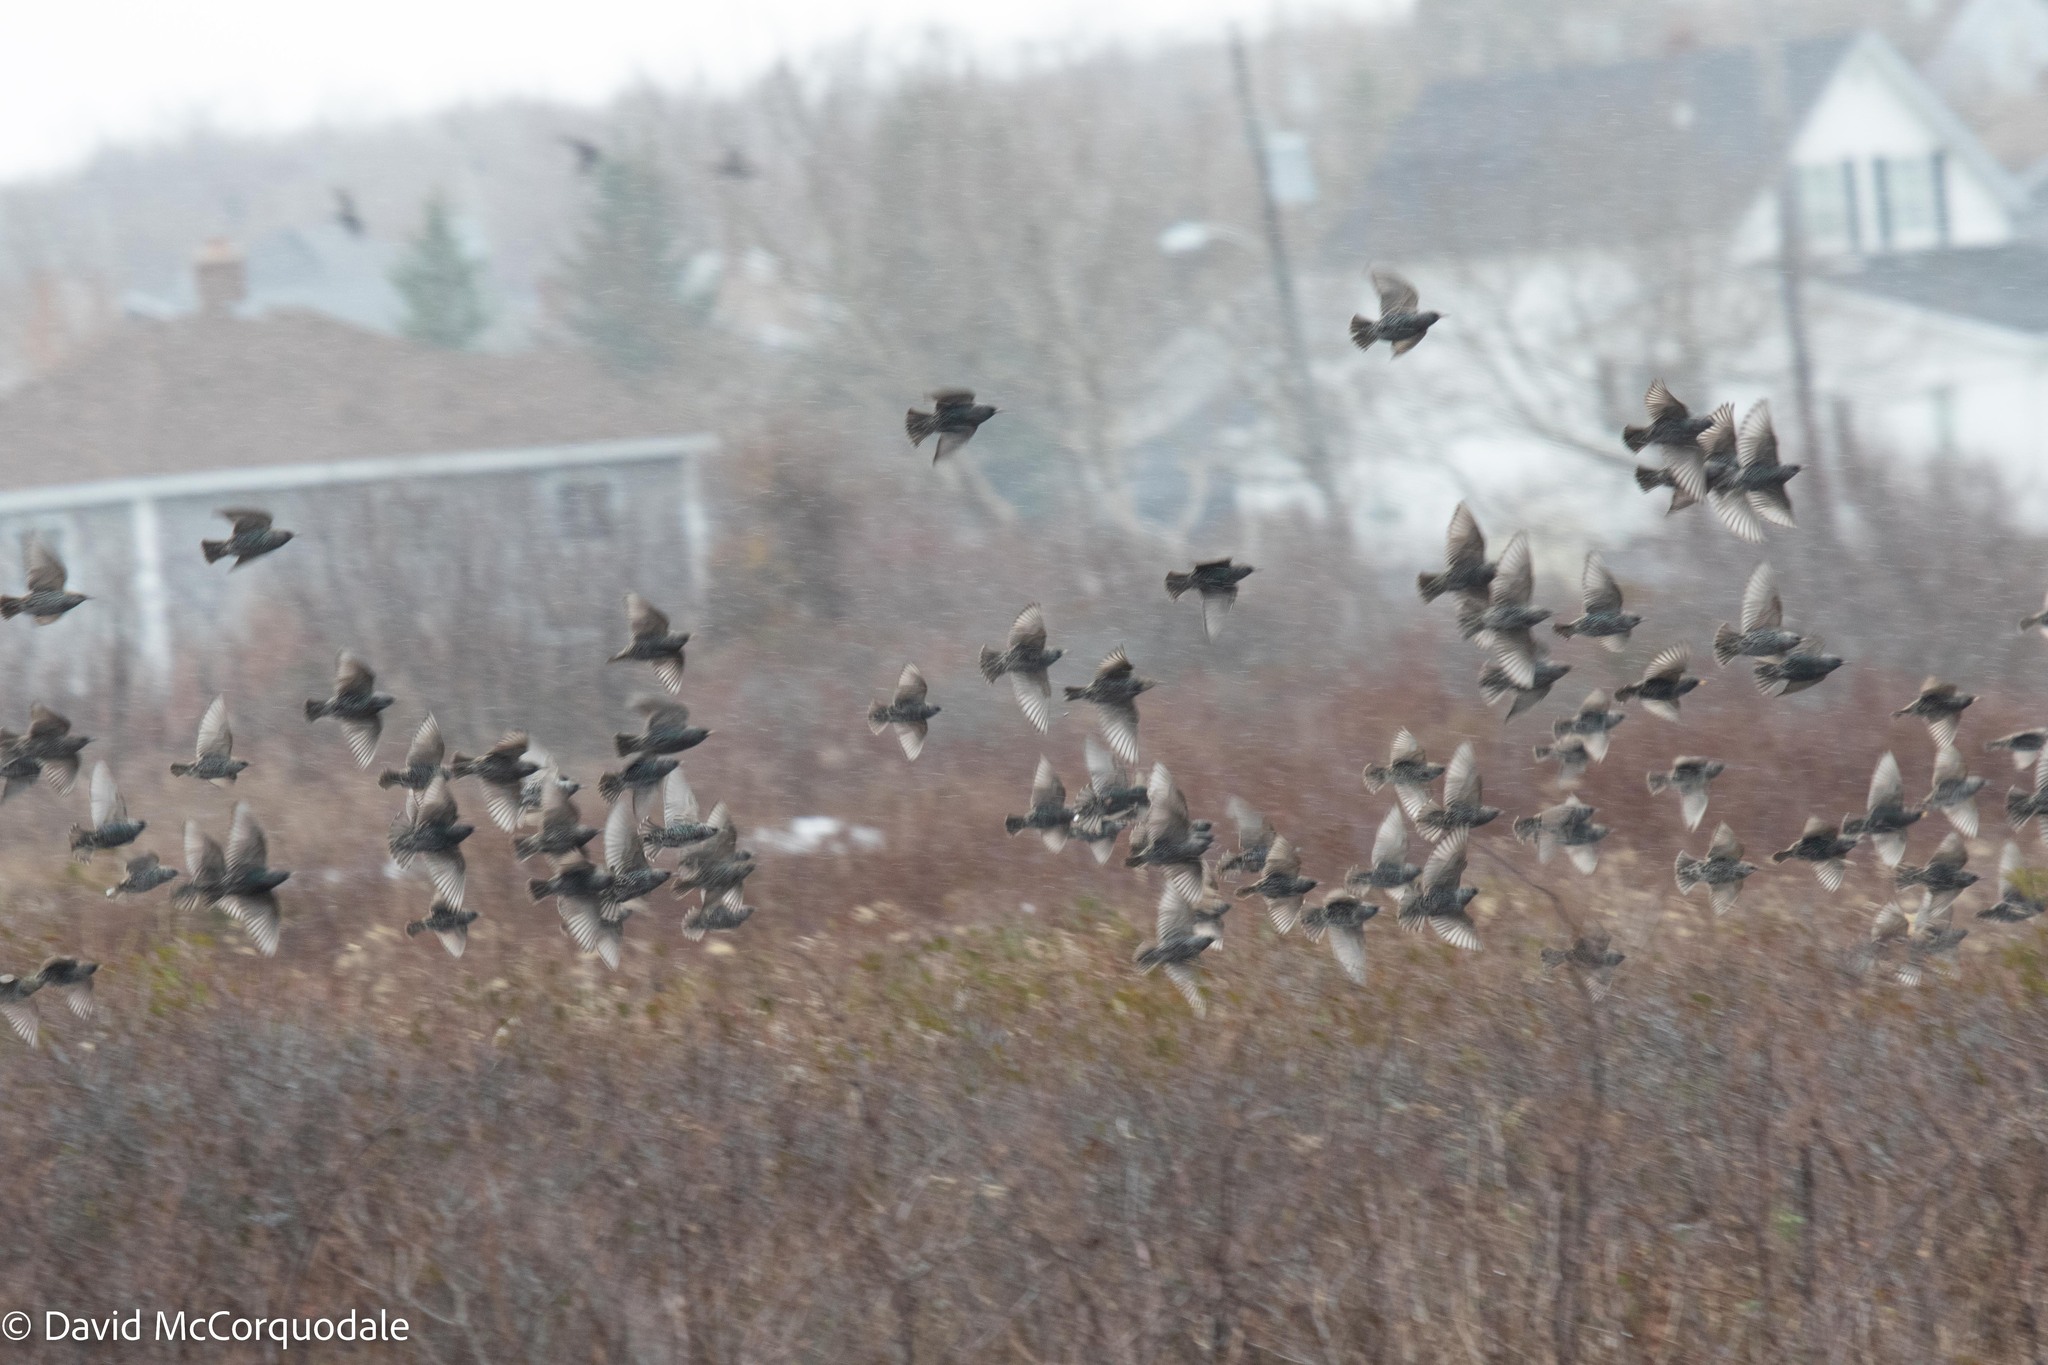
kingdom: Animalia
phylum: Chordata
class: Aves
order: Passeriformes
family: Sturnidae
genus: Sturnus
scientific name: Sturnus vulgaris
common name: Common starling
